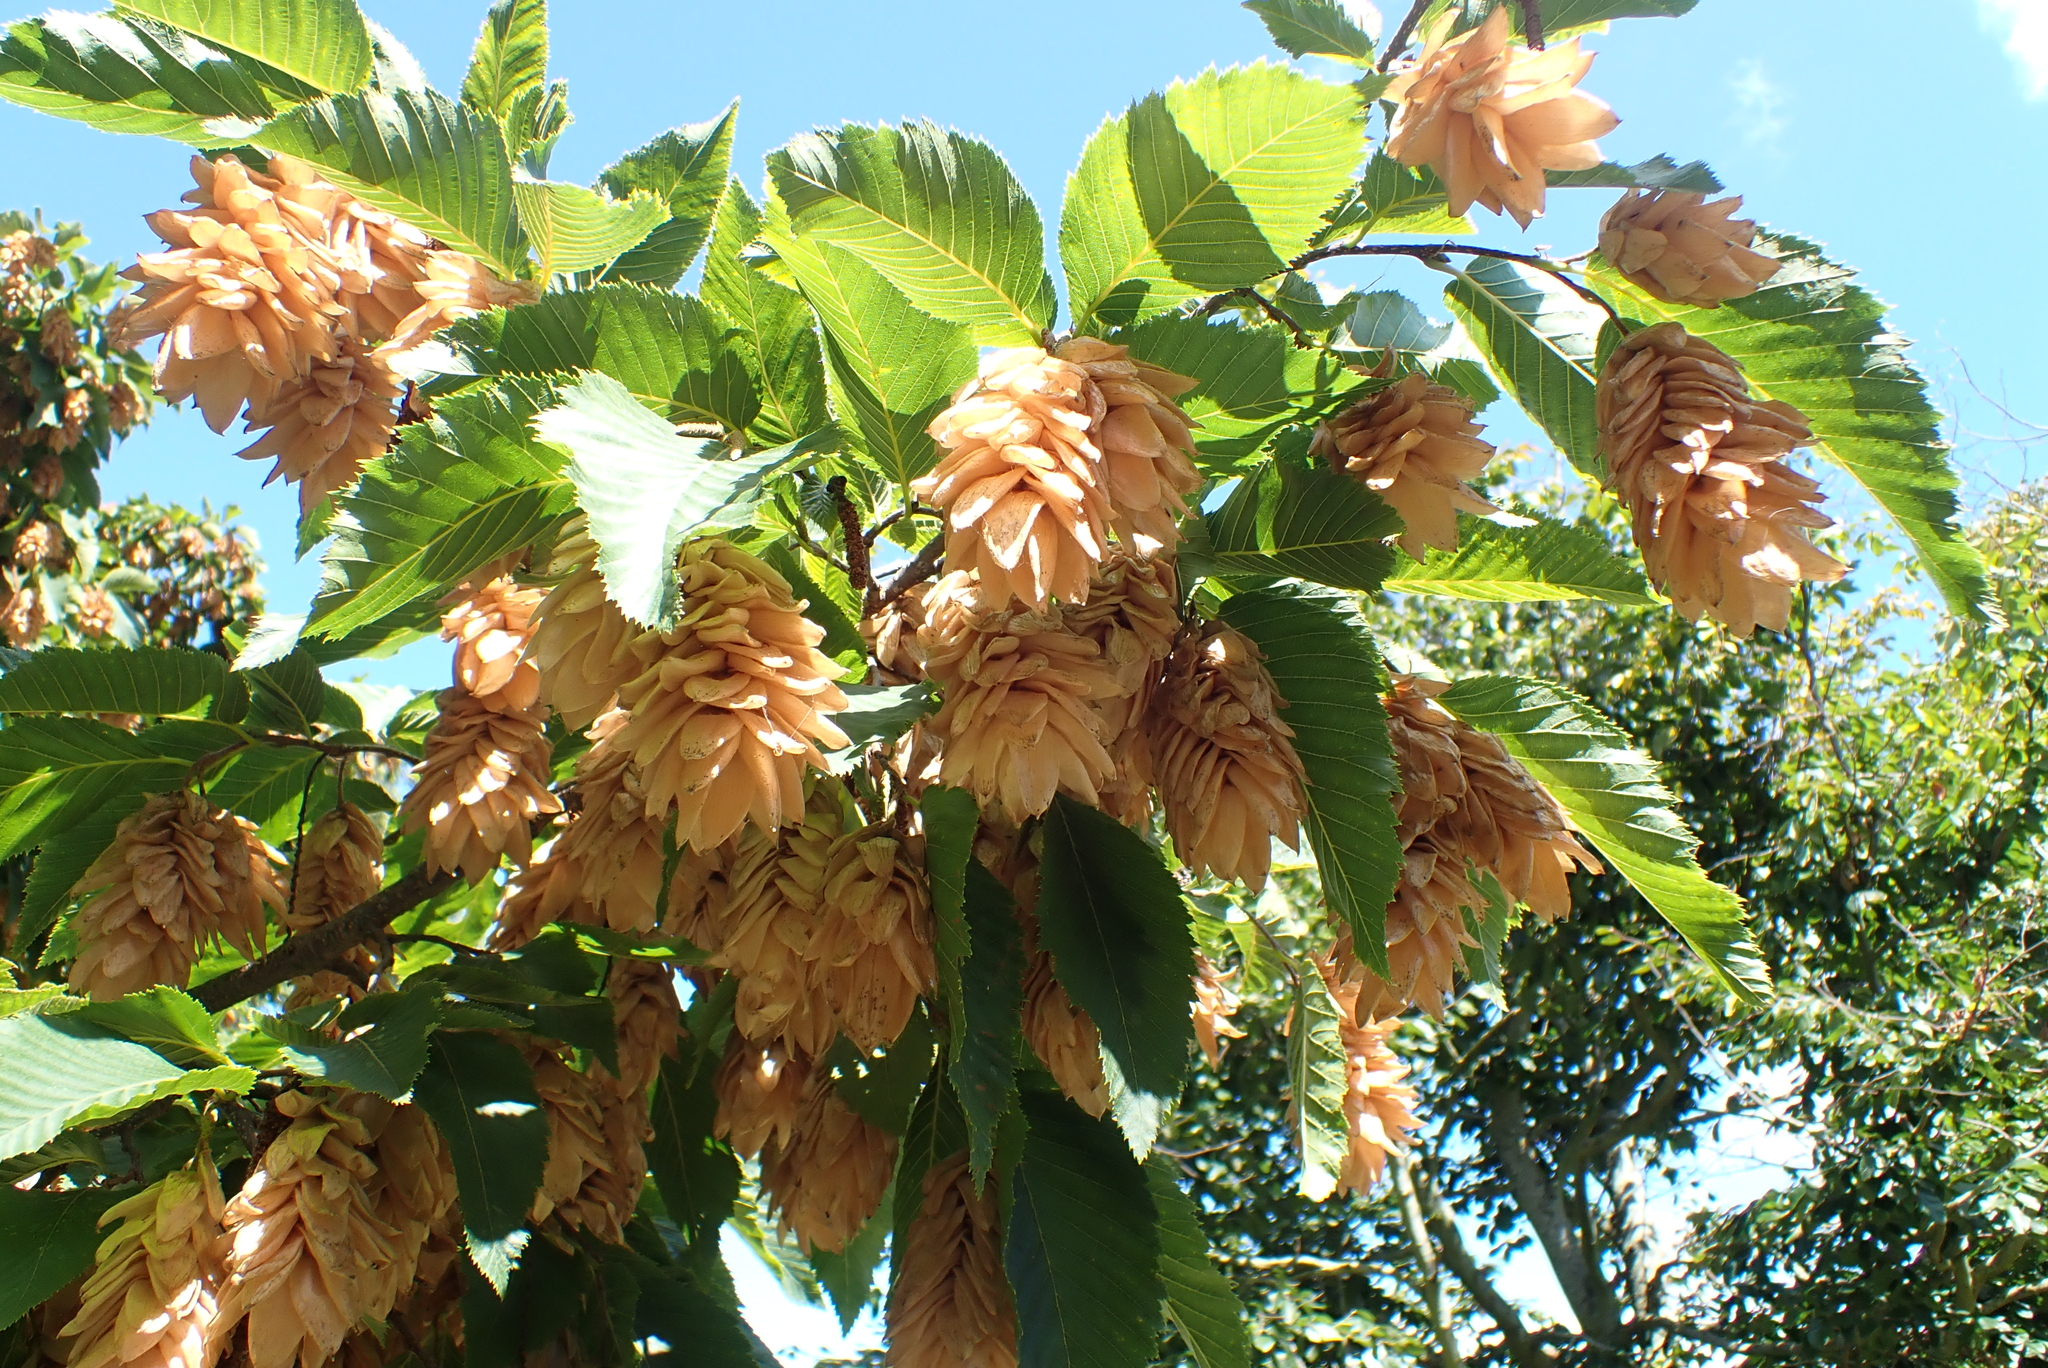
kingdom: Plantae
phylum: Tracheophyta
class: Magnoliopsida
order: Fagales
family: Betulaceae
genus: Ostrya
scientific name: Ostrya carpinifolia
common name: European hop-hornbeam
